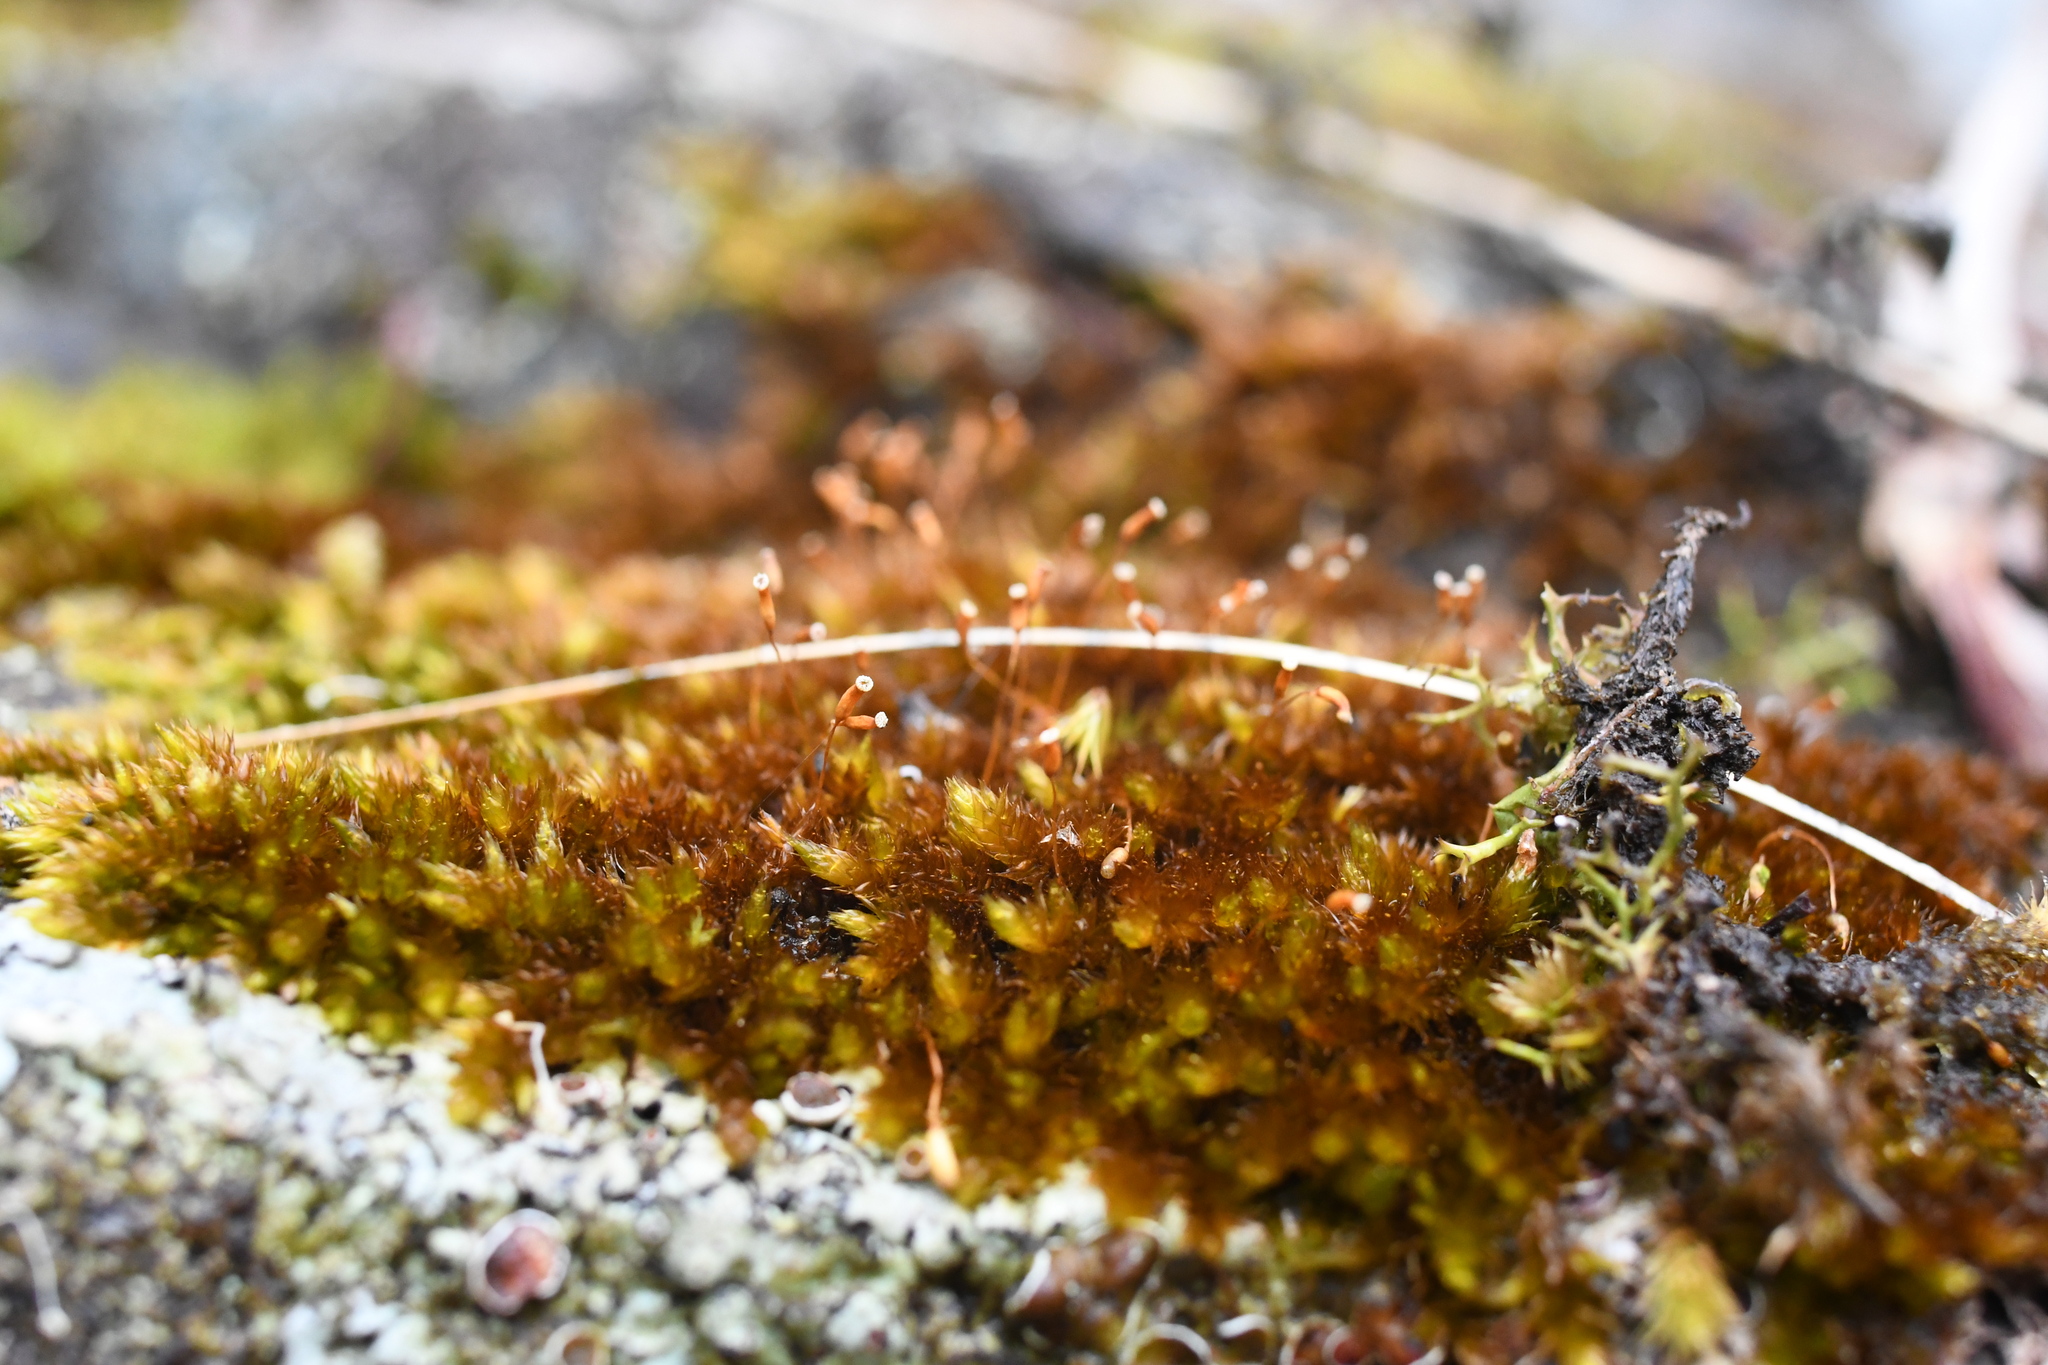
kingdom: Plantae
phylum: Bryophyta
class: Bryopsida
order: Hypnales
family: Sematophyllaceae
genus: Sematophyllum
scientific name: Sematophyllum homomallum
